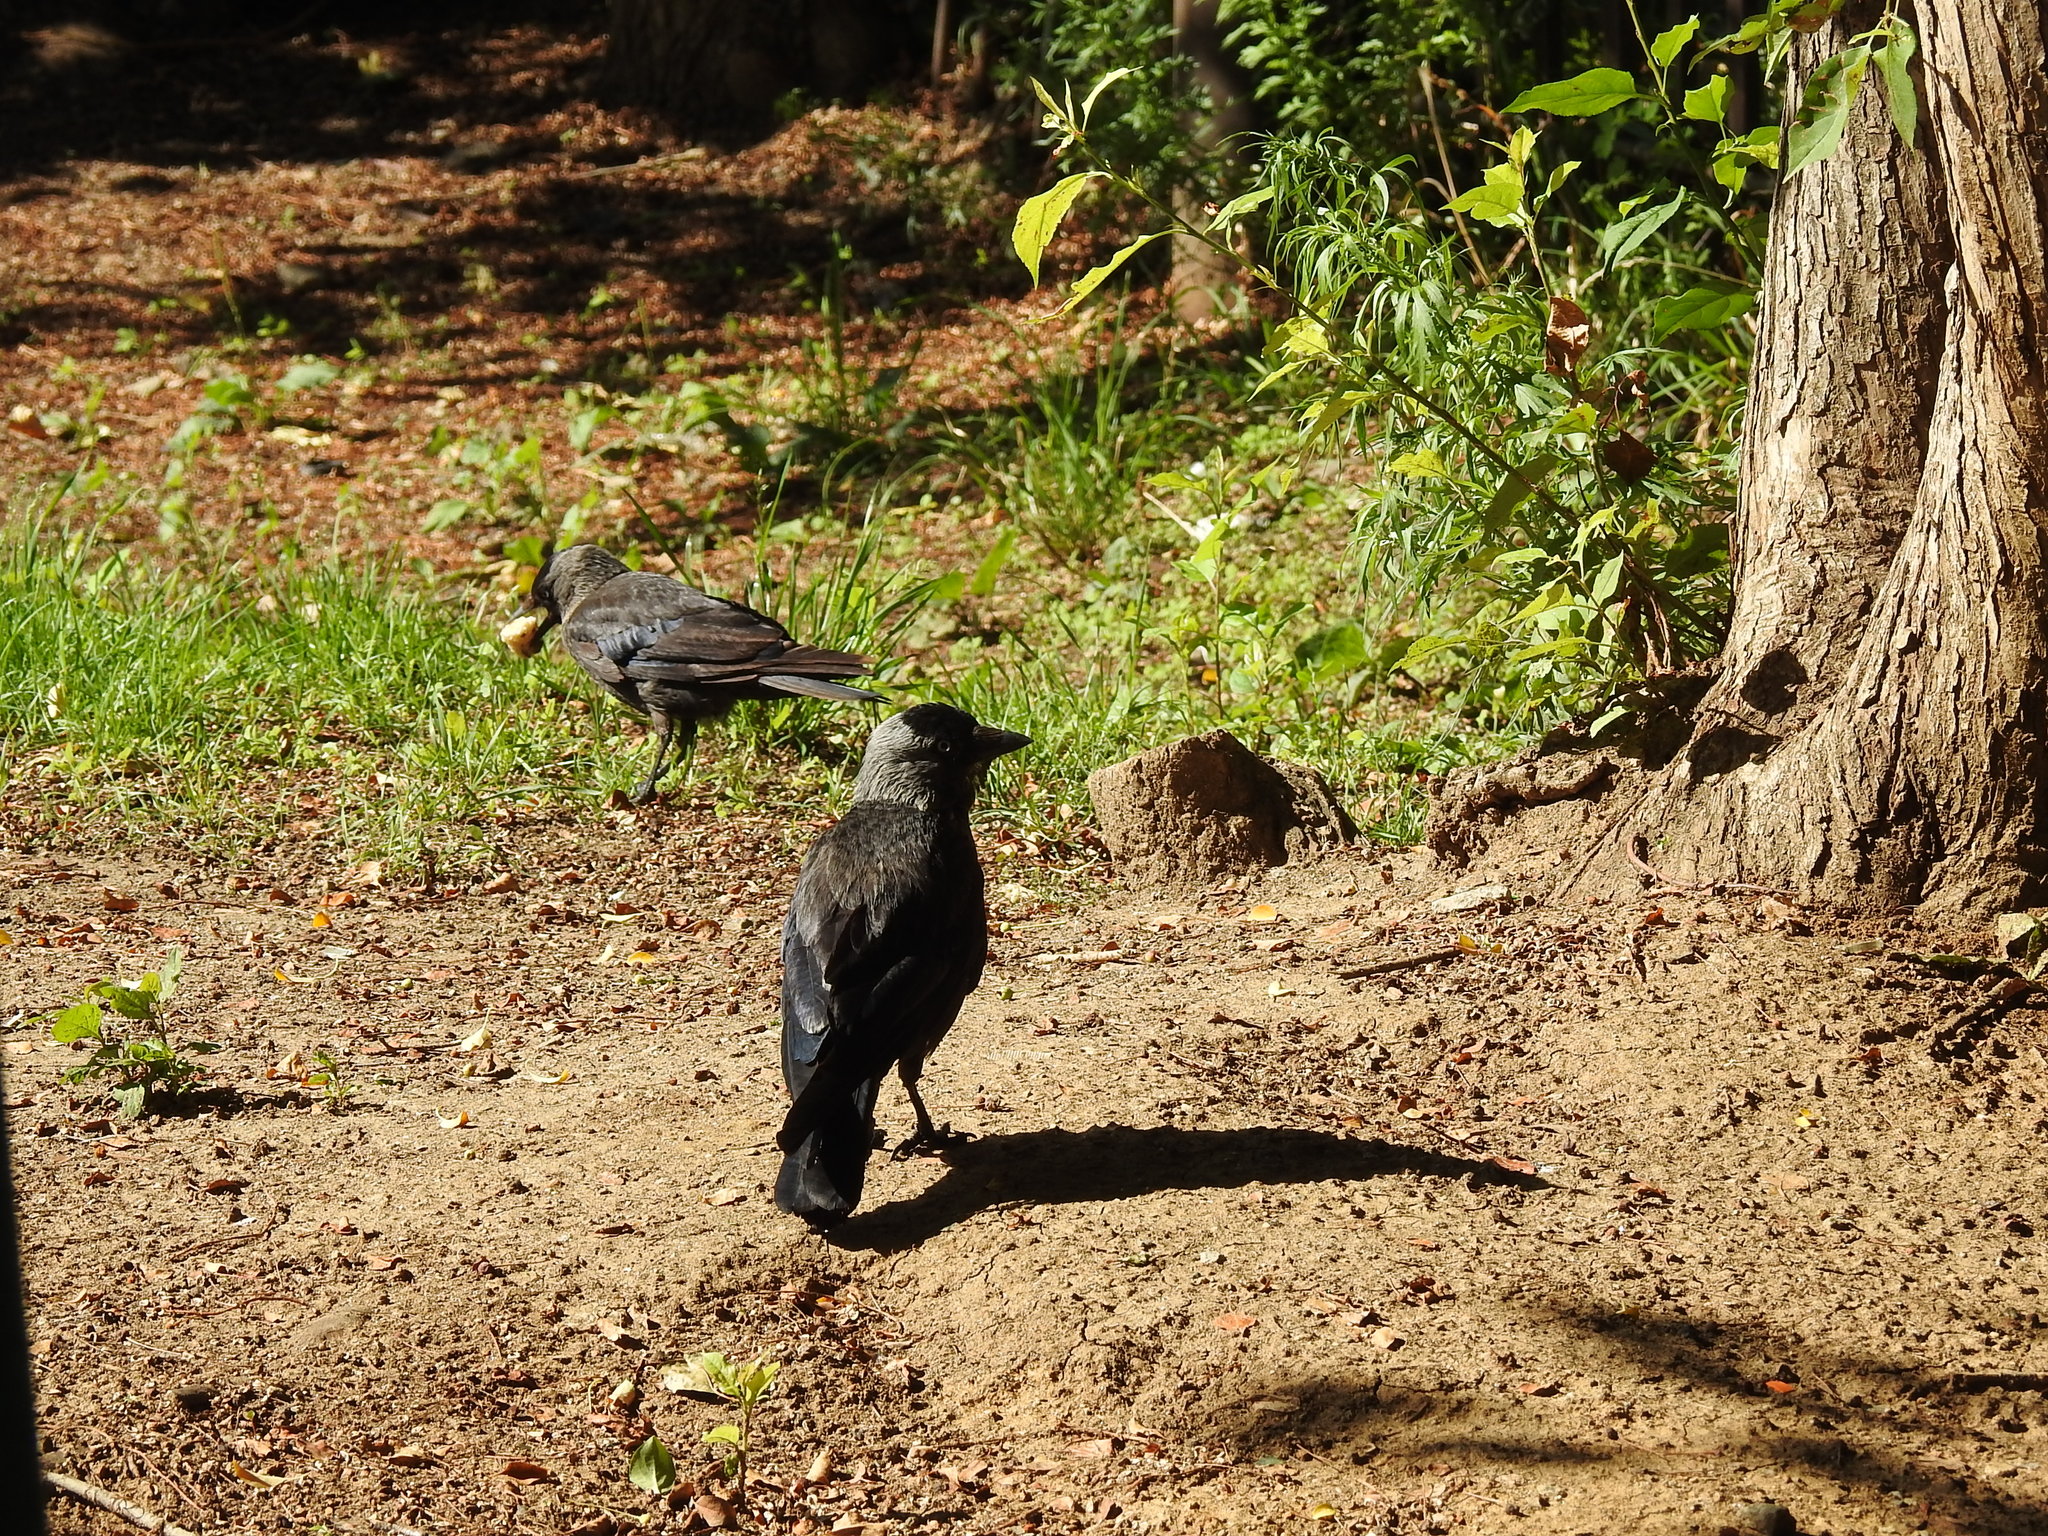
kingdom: Animalia
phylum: Chordata
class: Aves
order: Passeriformes
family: Corvidae
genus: Coloeus
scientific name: Coloeus monedula
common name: Western jackdaw
